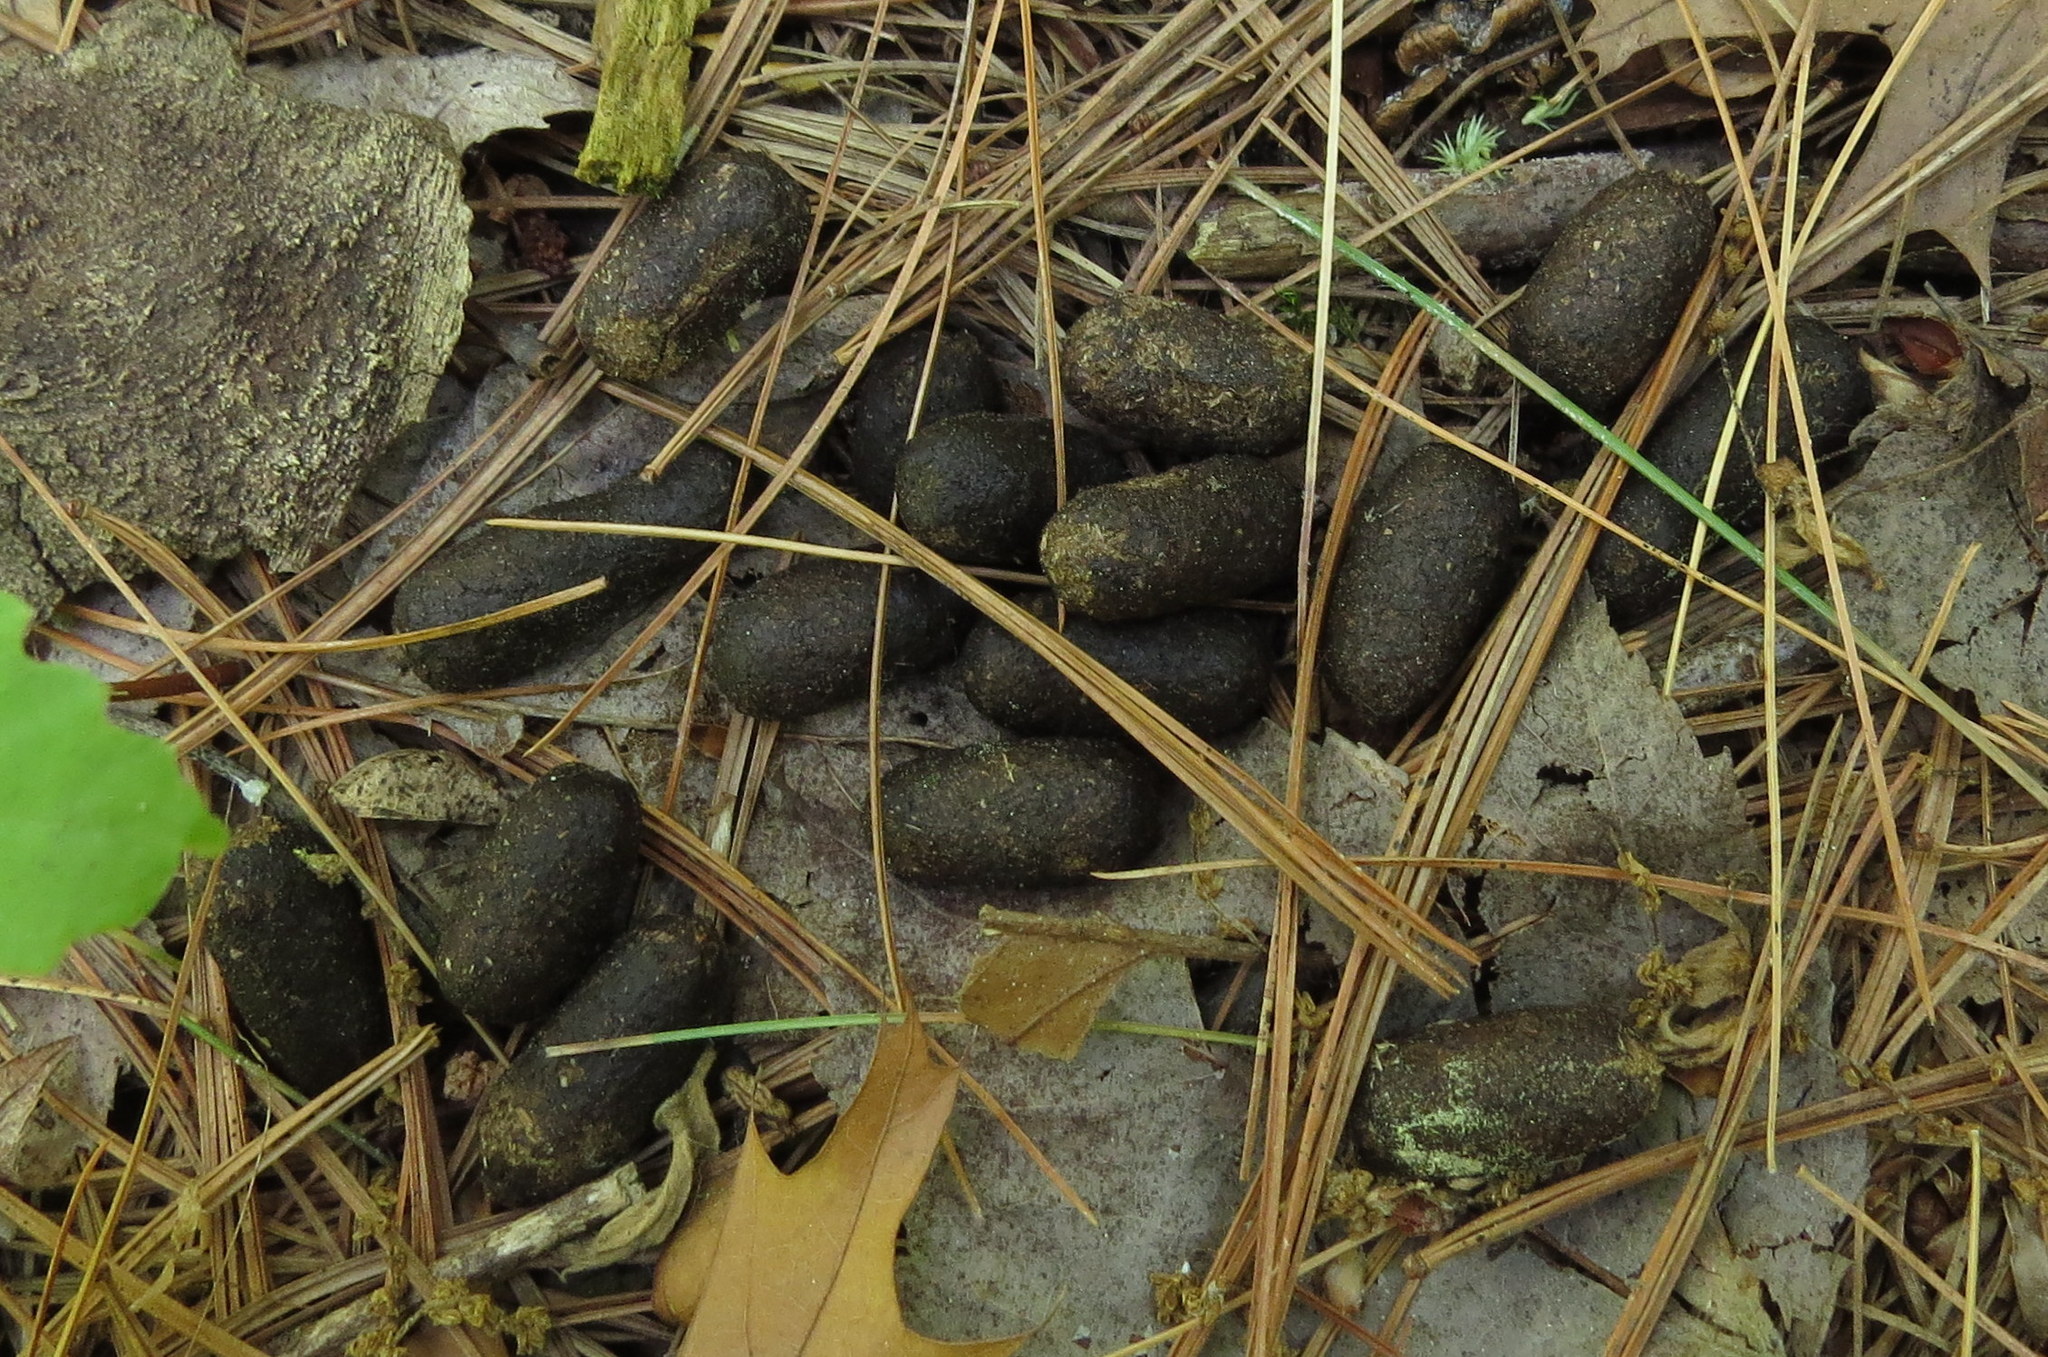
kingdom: Animalia
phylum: Chordata
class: Mammalia
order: Artiodactyla
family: Cervidae
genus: Odocoileus
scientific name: Odocoileus virginianus
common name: White-tailed deer
